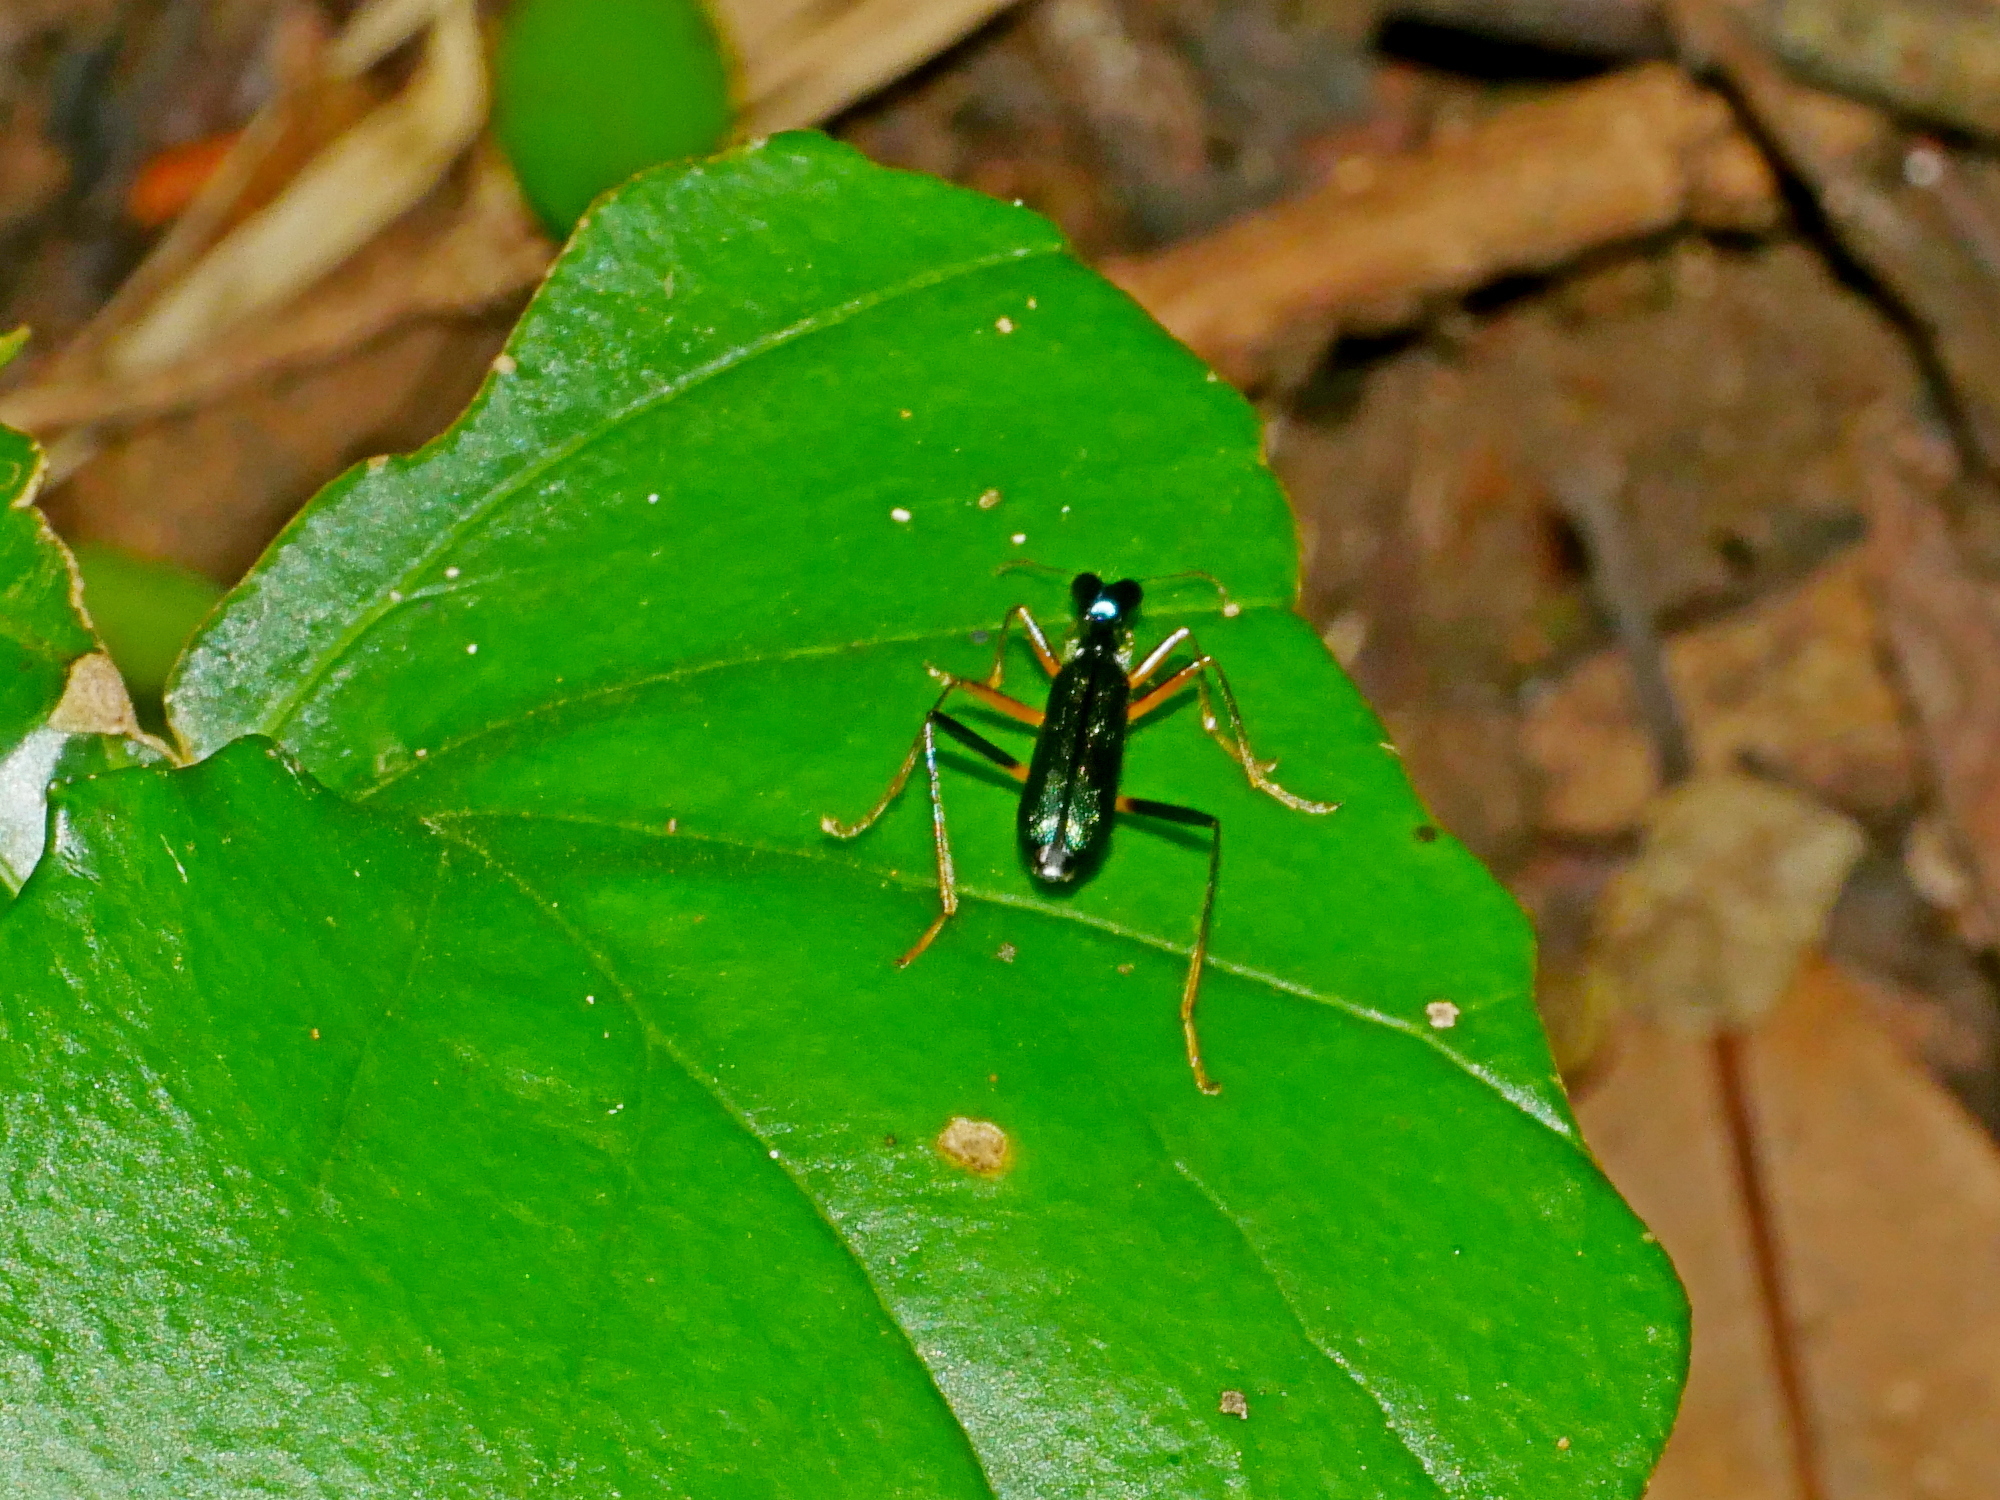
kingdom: Animalia
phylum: Arthropoda
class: Insecta
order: Coleoptera
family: Carabidae
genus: Neocollyris
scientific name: Neocollyris formosana
